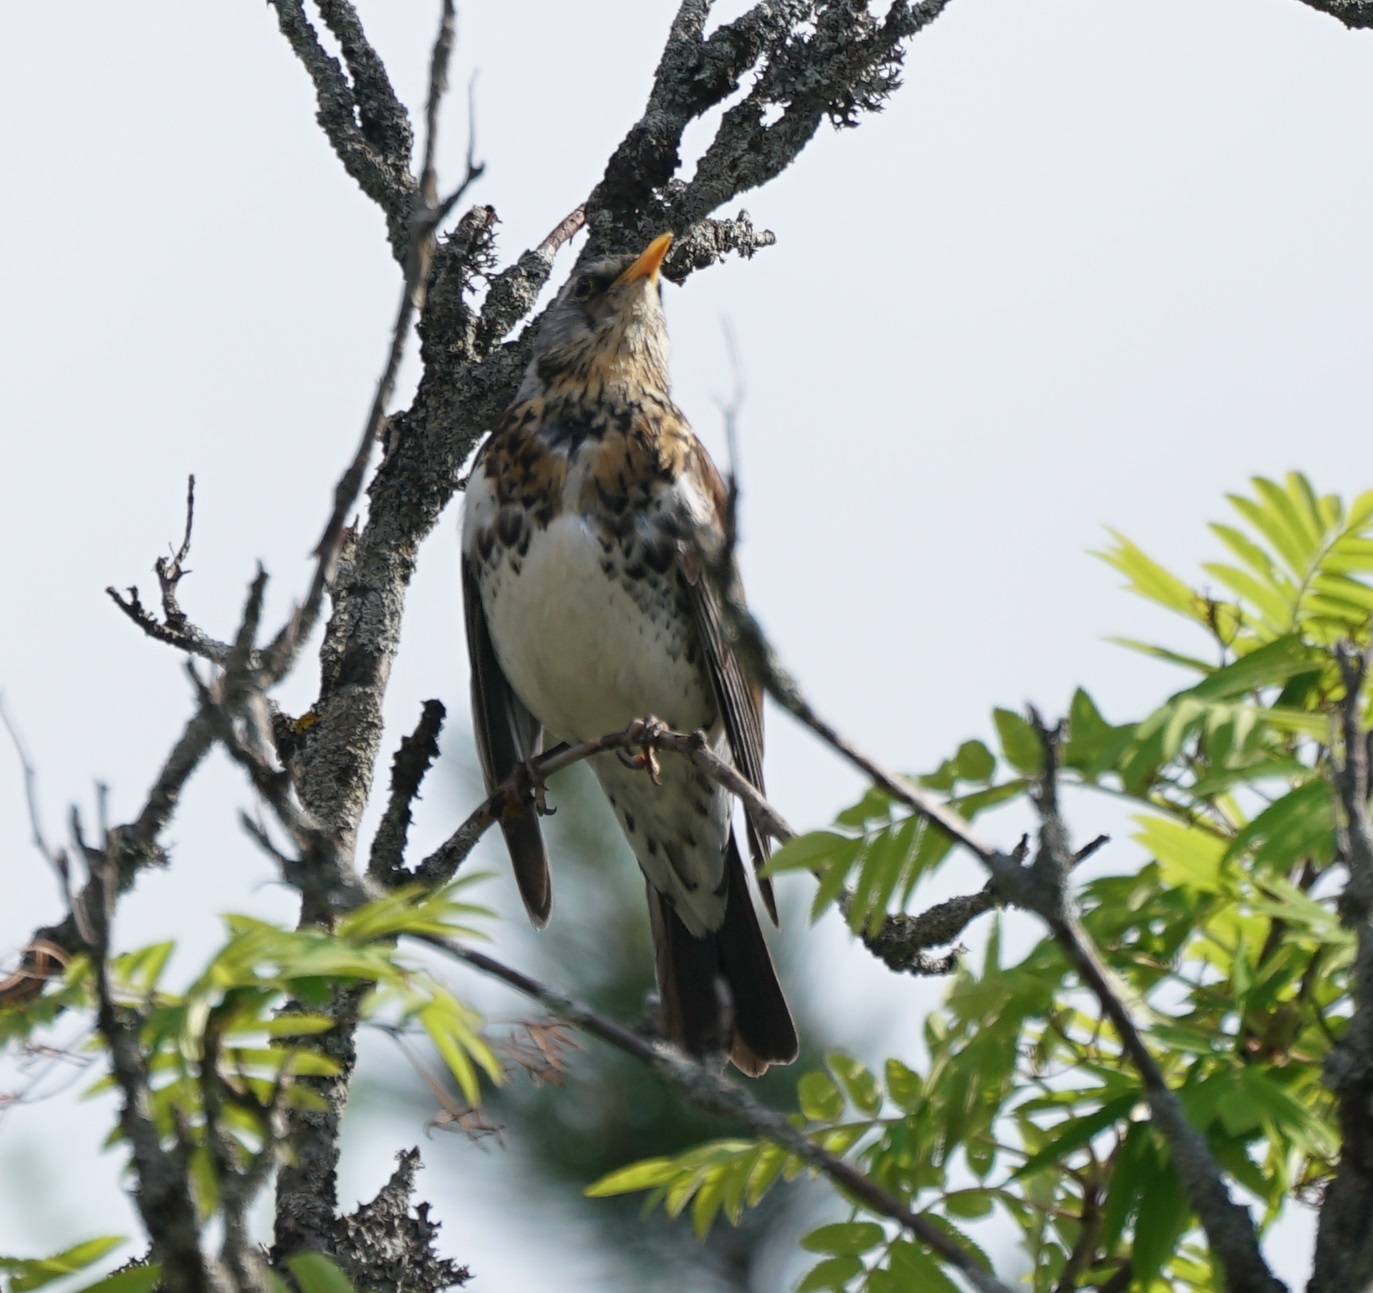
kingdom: Animalia
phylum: Chordata
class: Aves
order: Passeriformes
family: Turdidae
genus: Turdus
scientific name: Turdus pilaris
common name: Fieldfare
